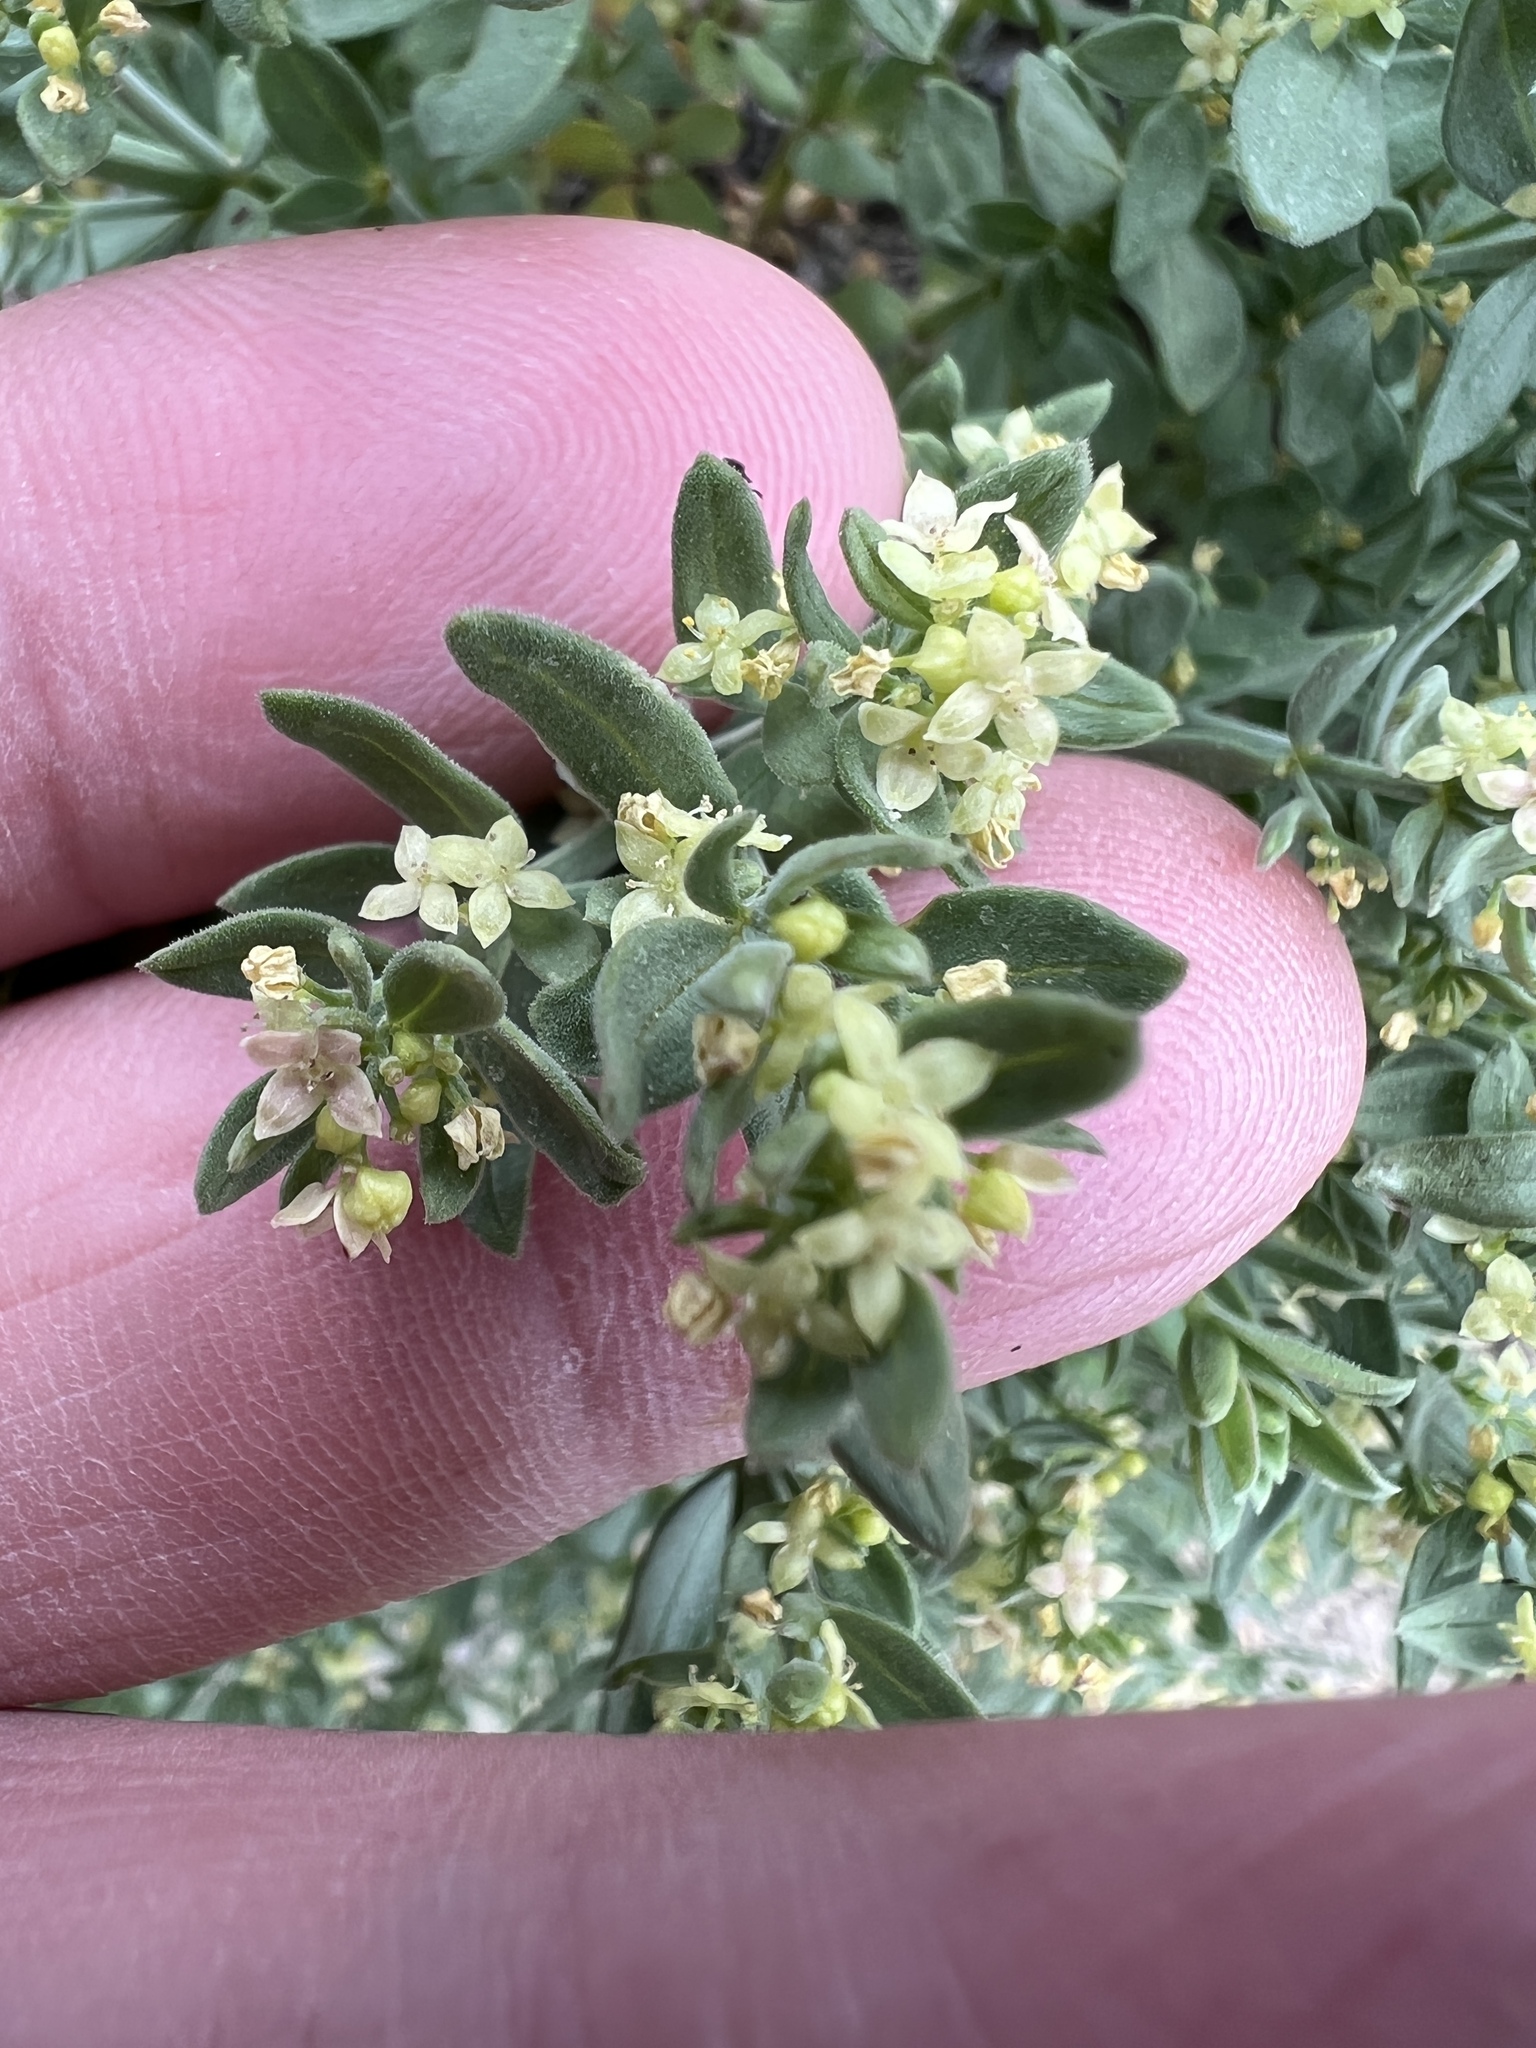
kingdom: Plantae
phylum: Tracheophyta
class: Magnoliopsida
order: Gentianales
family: Rubiaceae
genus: Galium
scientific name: Galium serpenticum
